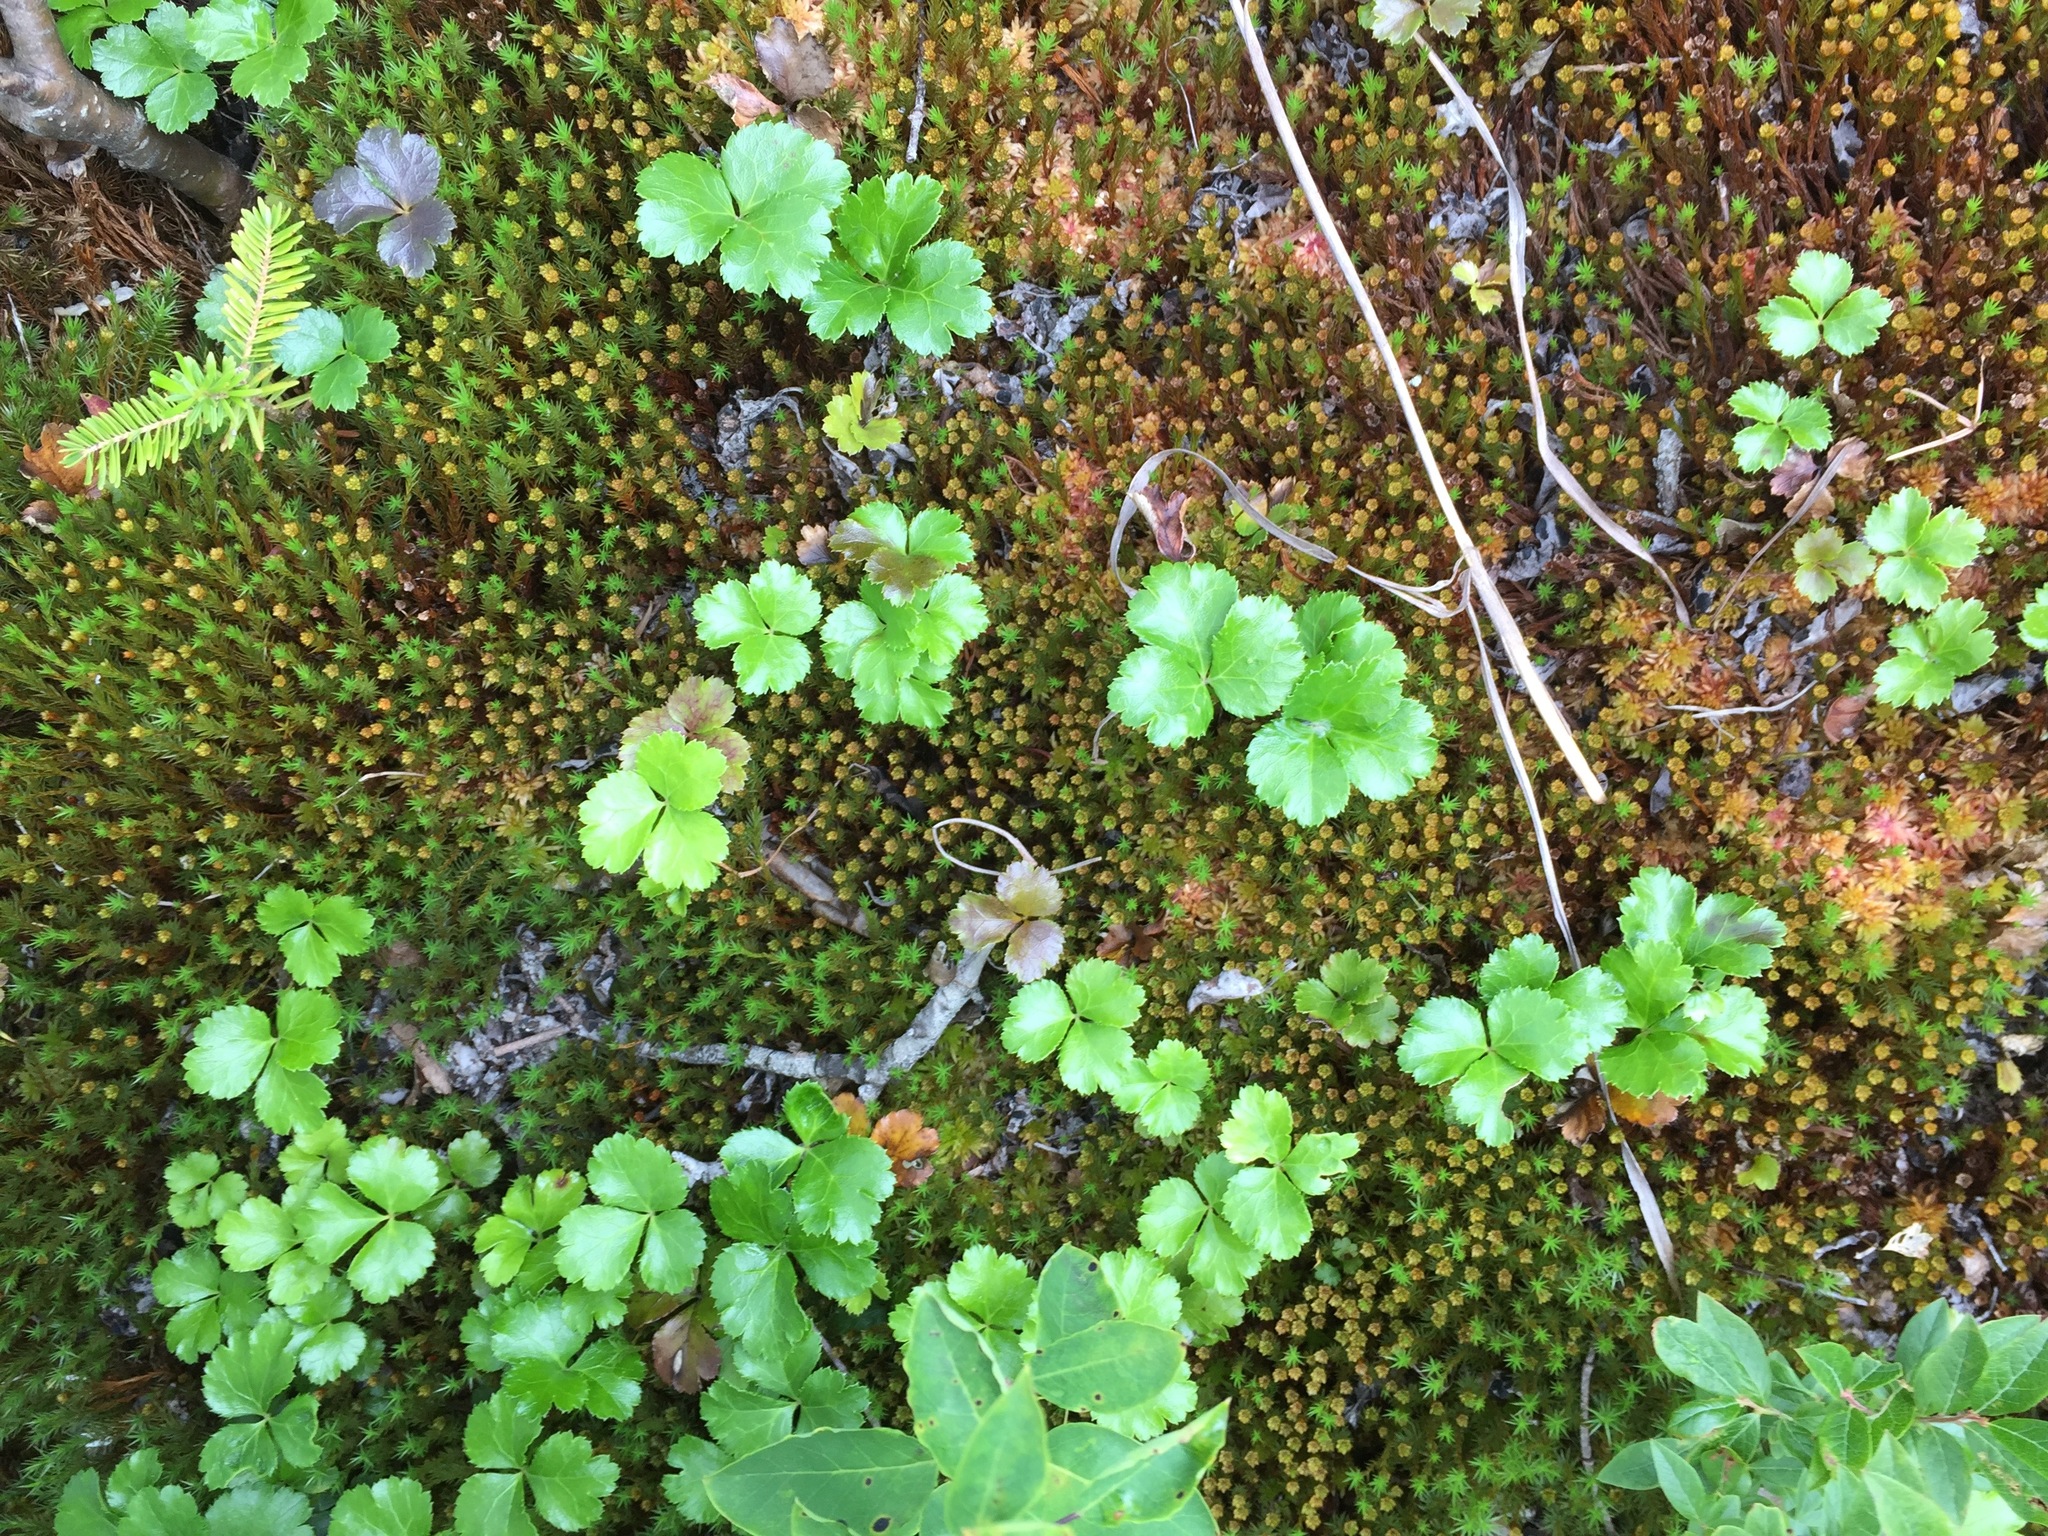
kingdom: Plantae
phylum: Tracheophyta
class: Magnoliopsida
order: Ranunculales
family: Ranunculaceae
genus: Coptis
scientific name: Coptis trifolia
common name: Canker-root
